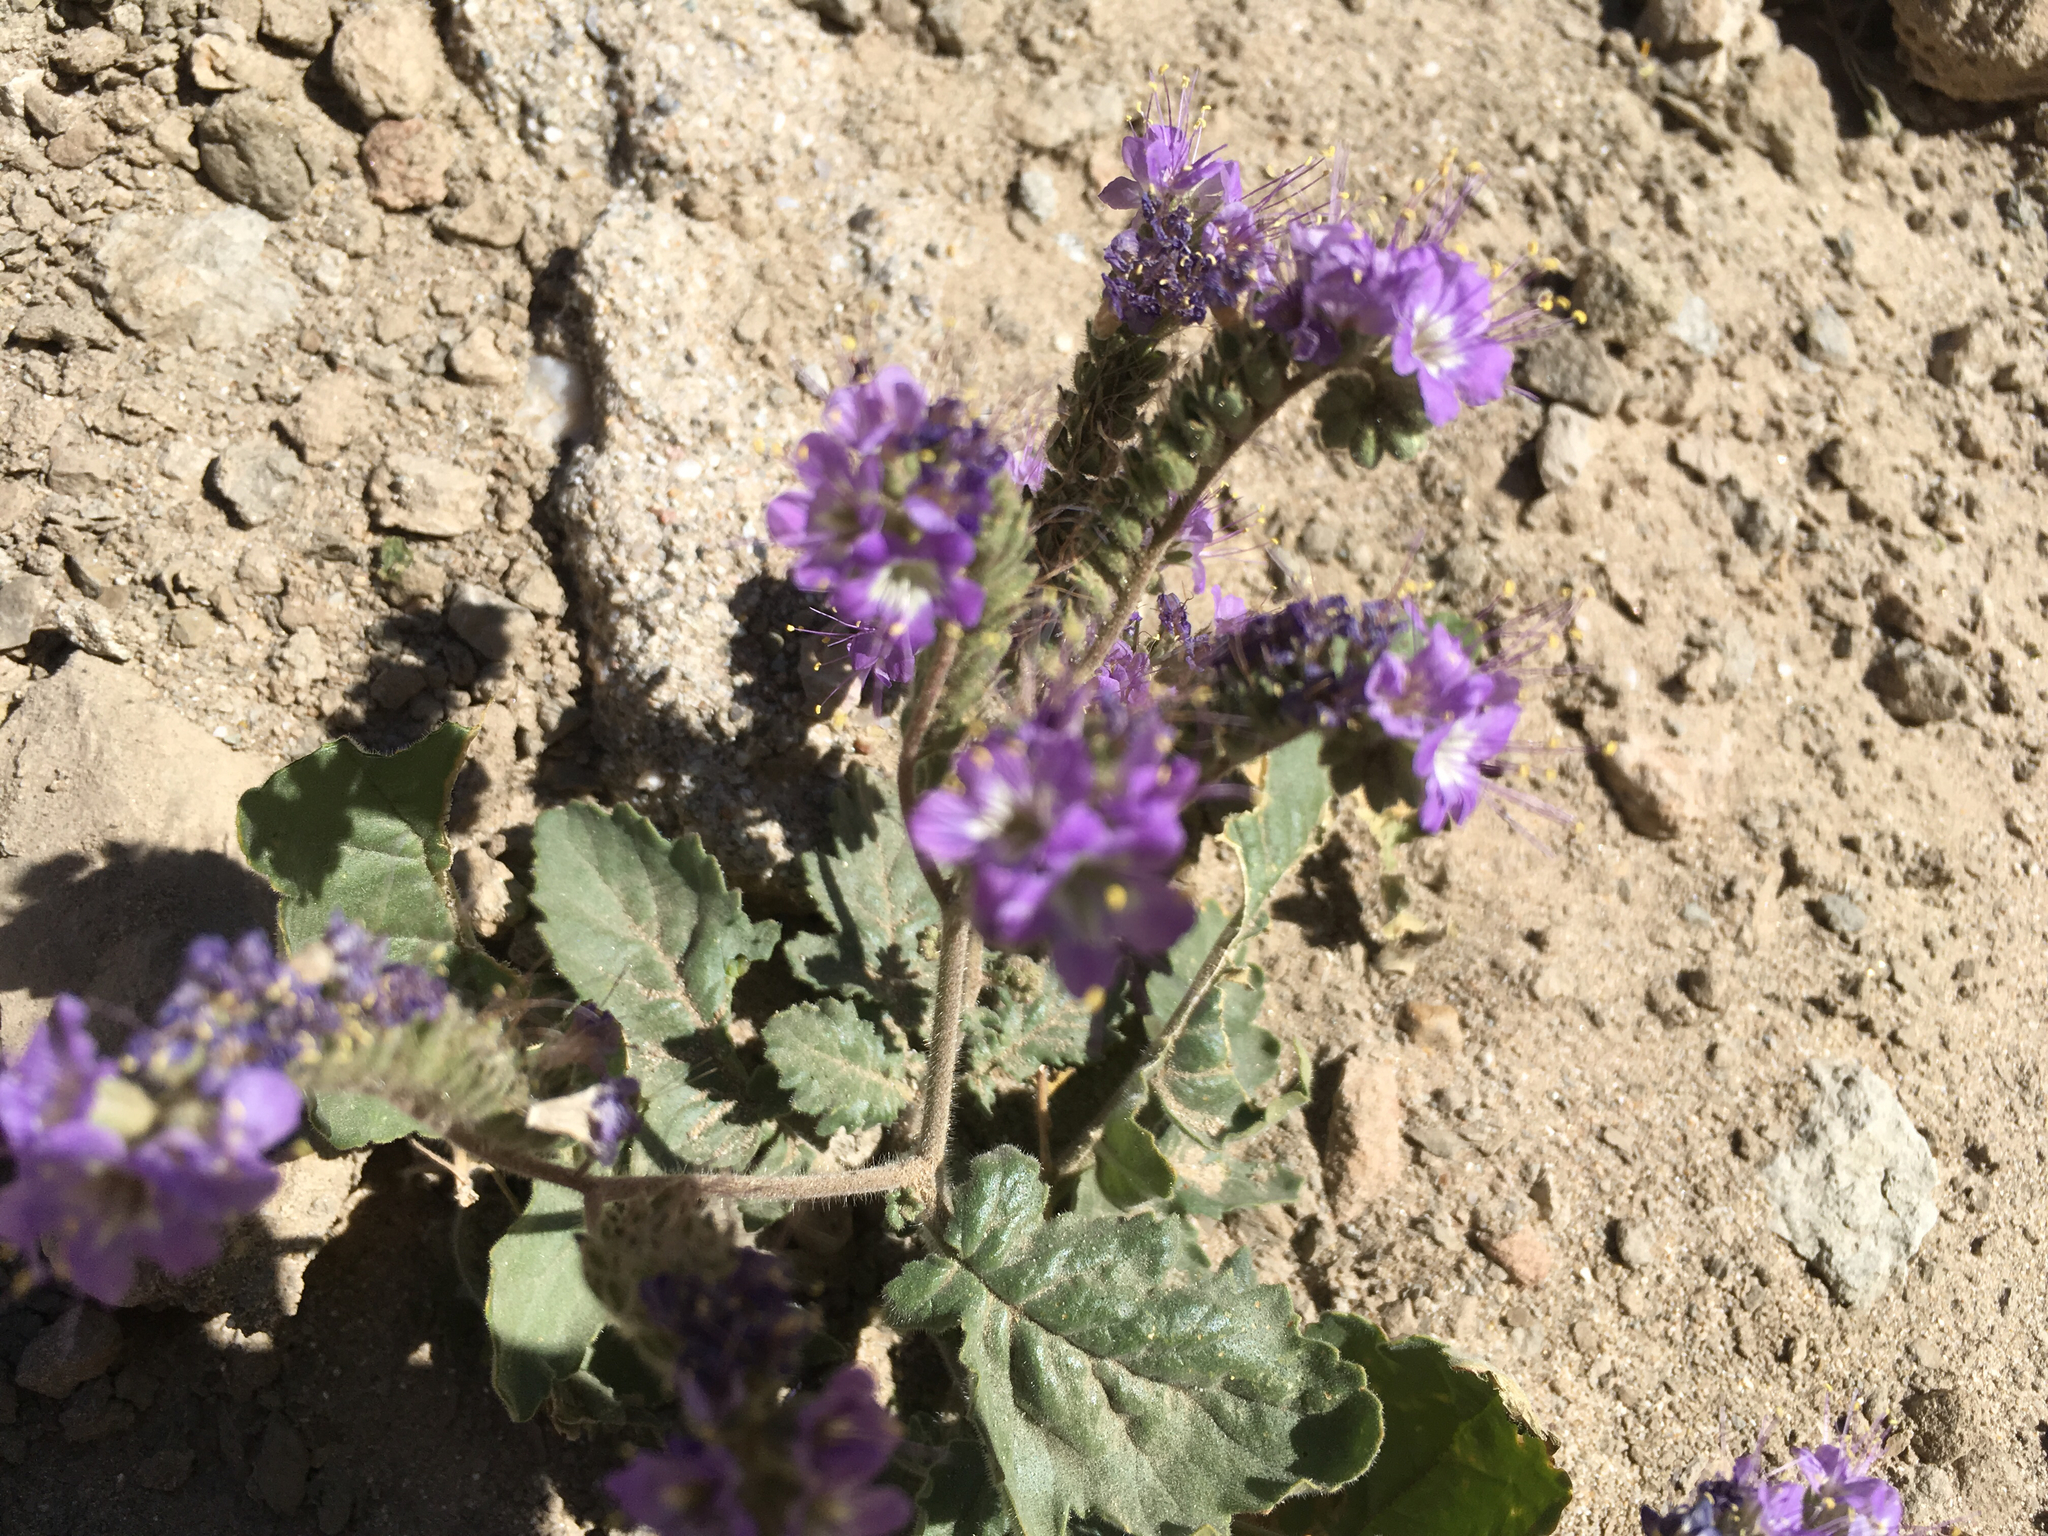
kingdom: Plantae
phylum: Tracheophyta
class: Magnoliopsida
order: Boraginales
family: Hydrophyllaceae
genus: Phacelia
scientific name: Phacelia crenulata
